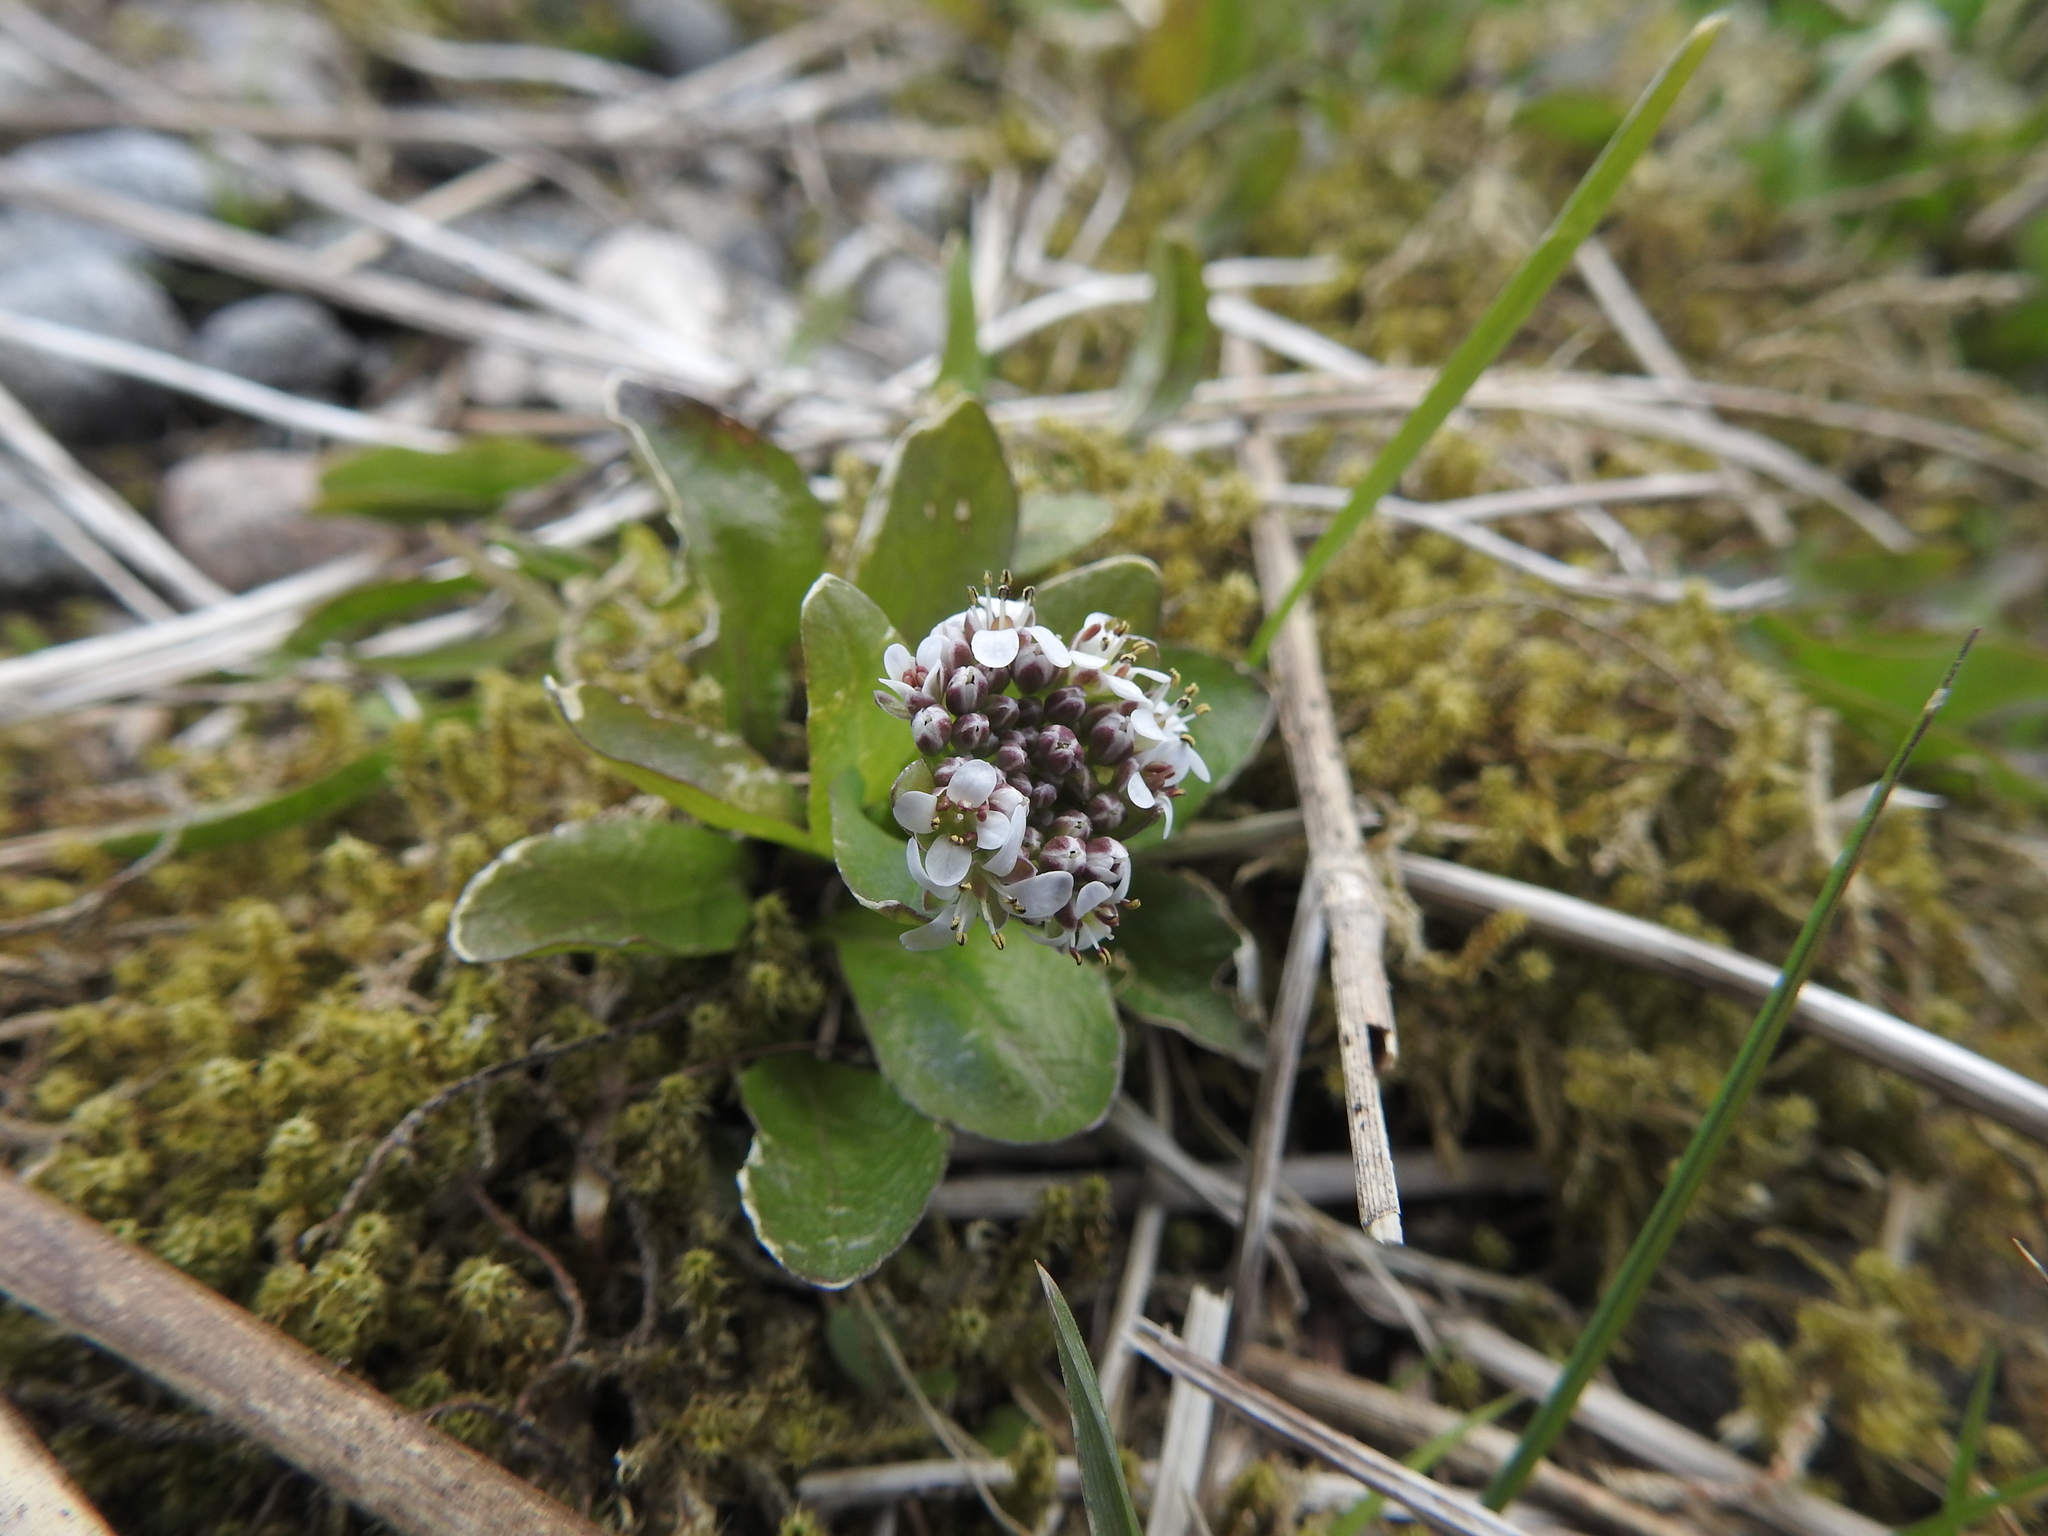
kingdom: Plantae
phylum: Tracheophyta
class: Magnoliopsida
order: Brassicales
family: Brassicaceae
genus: Noccaea
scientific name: Noccaea caerulescens
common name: Alpine pennycress
